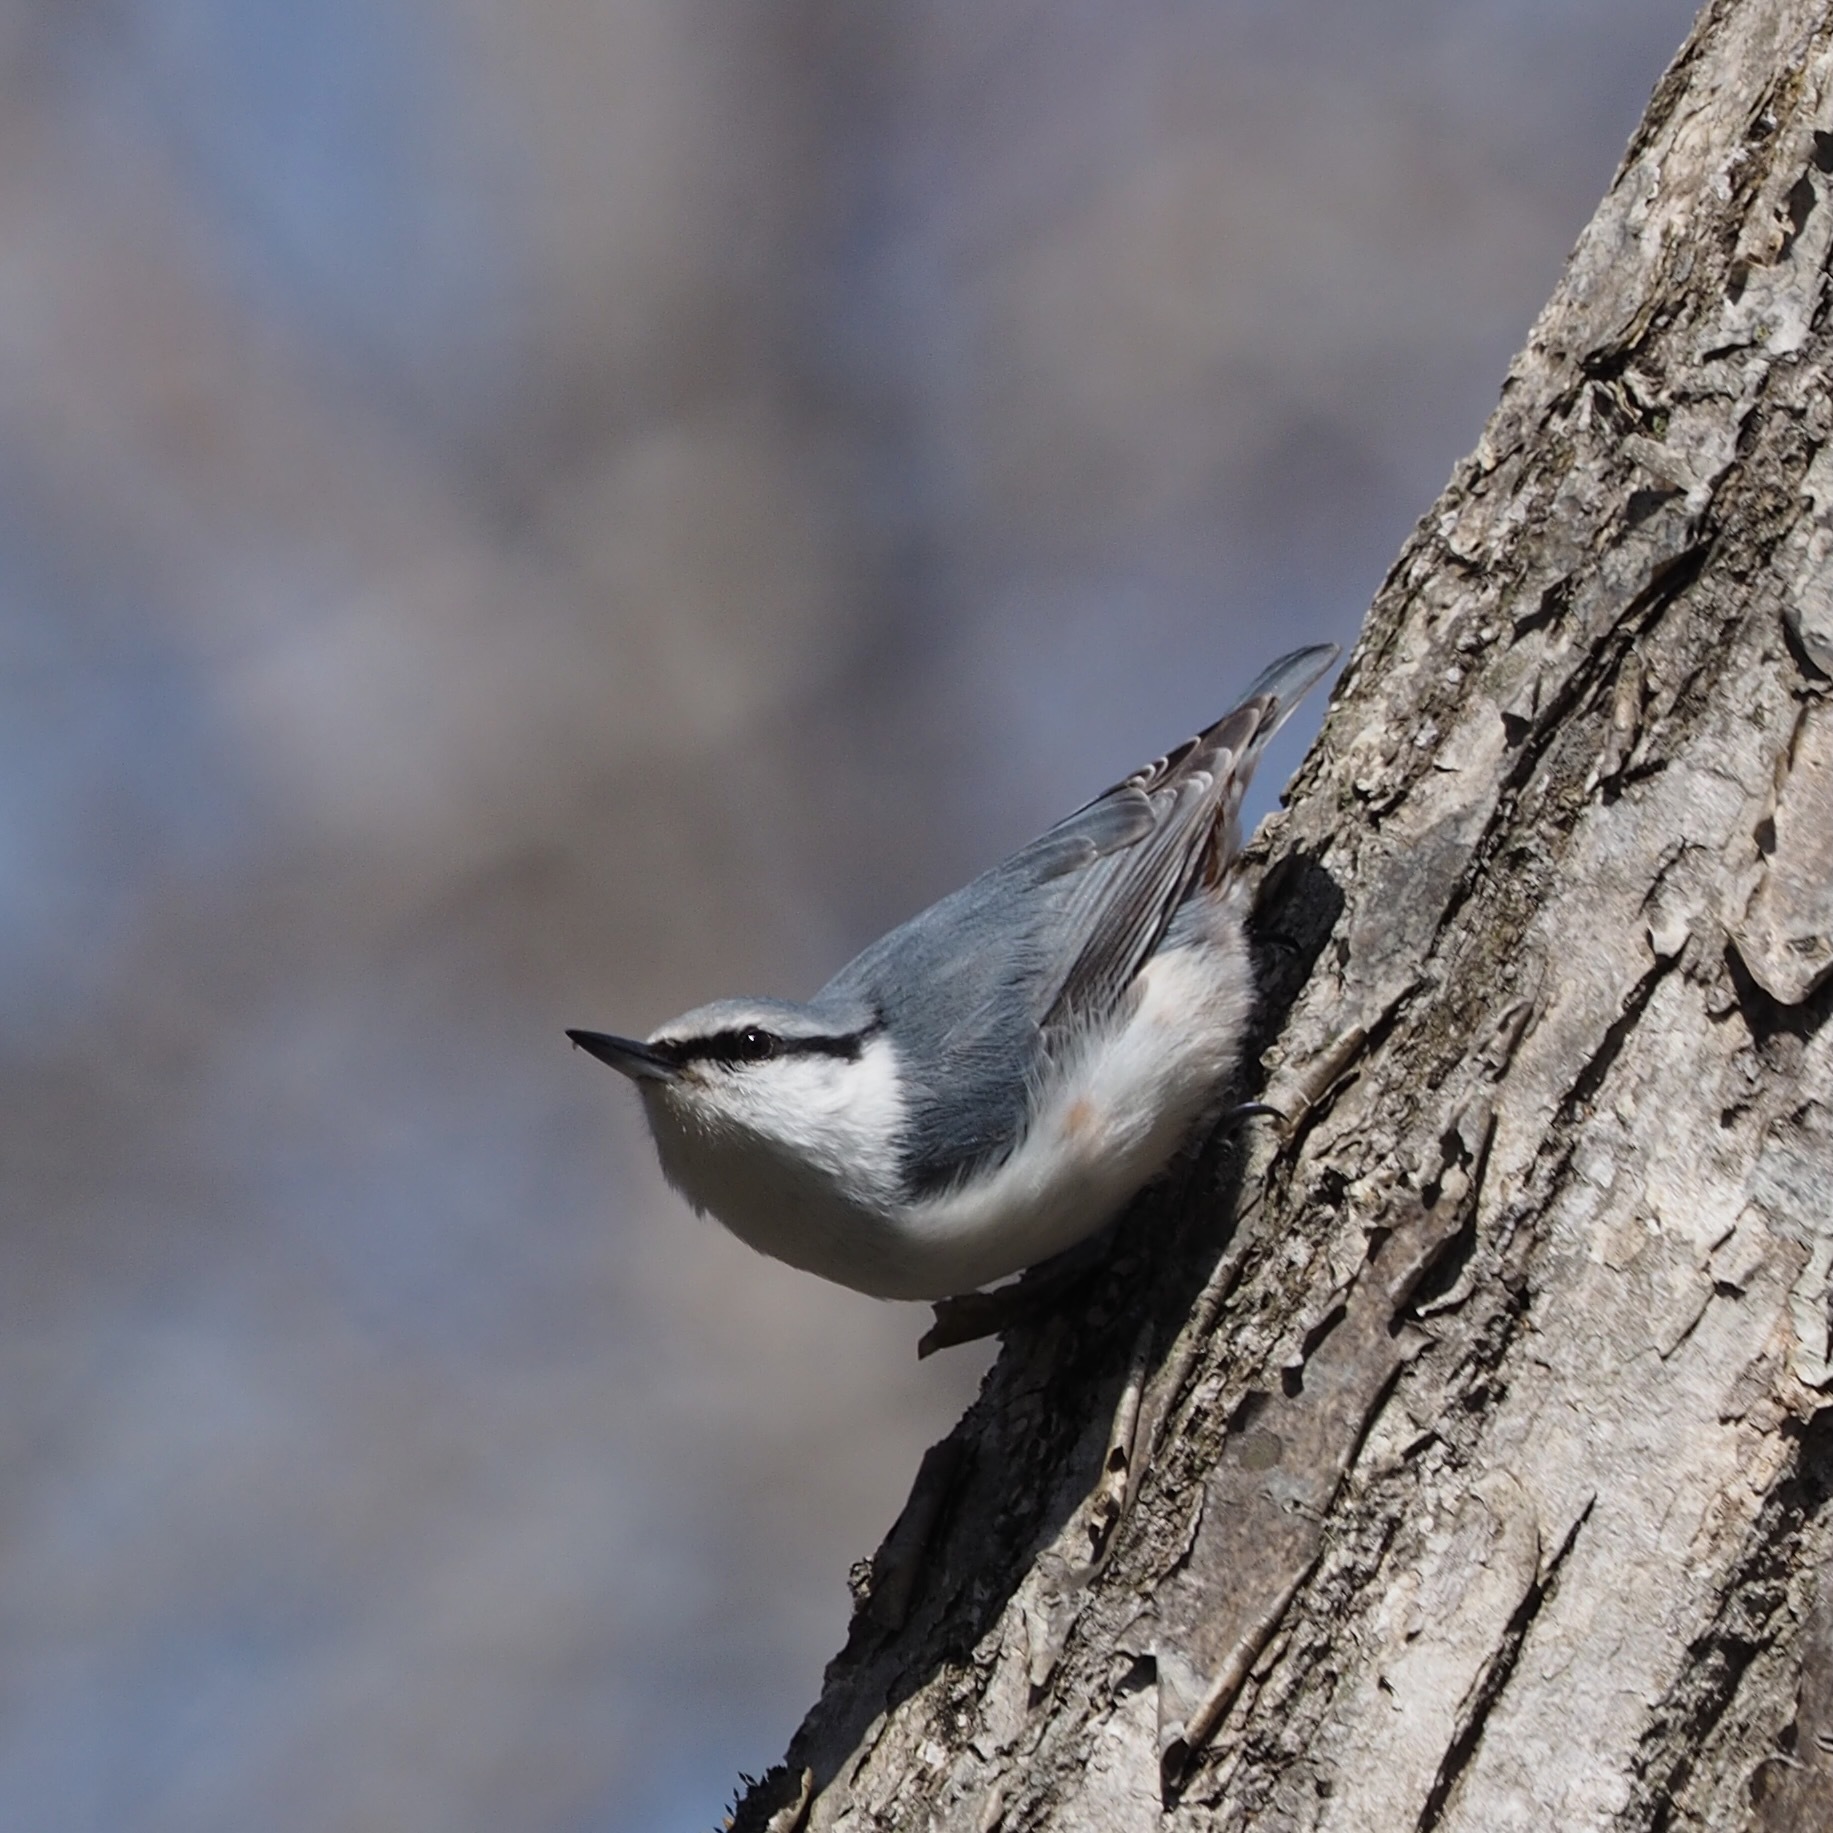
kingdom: Animalia
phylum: Chordata
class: Aves
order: Passeriformes
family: Sittidae
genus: Sitta
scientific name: Sitta europaea
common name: Eurasian nuthatch
